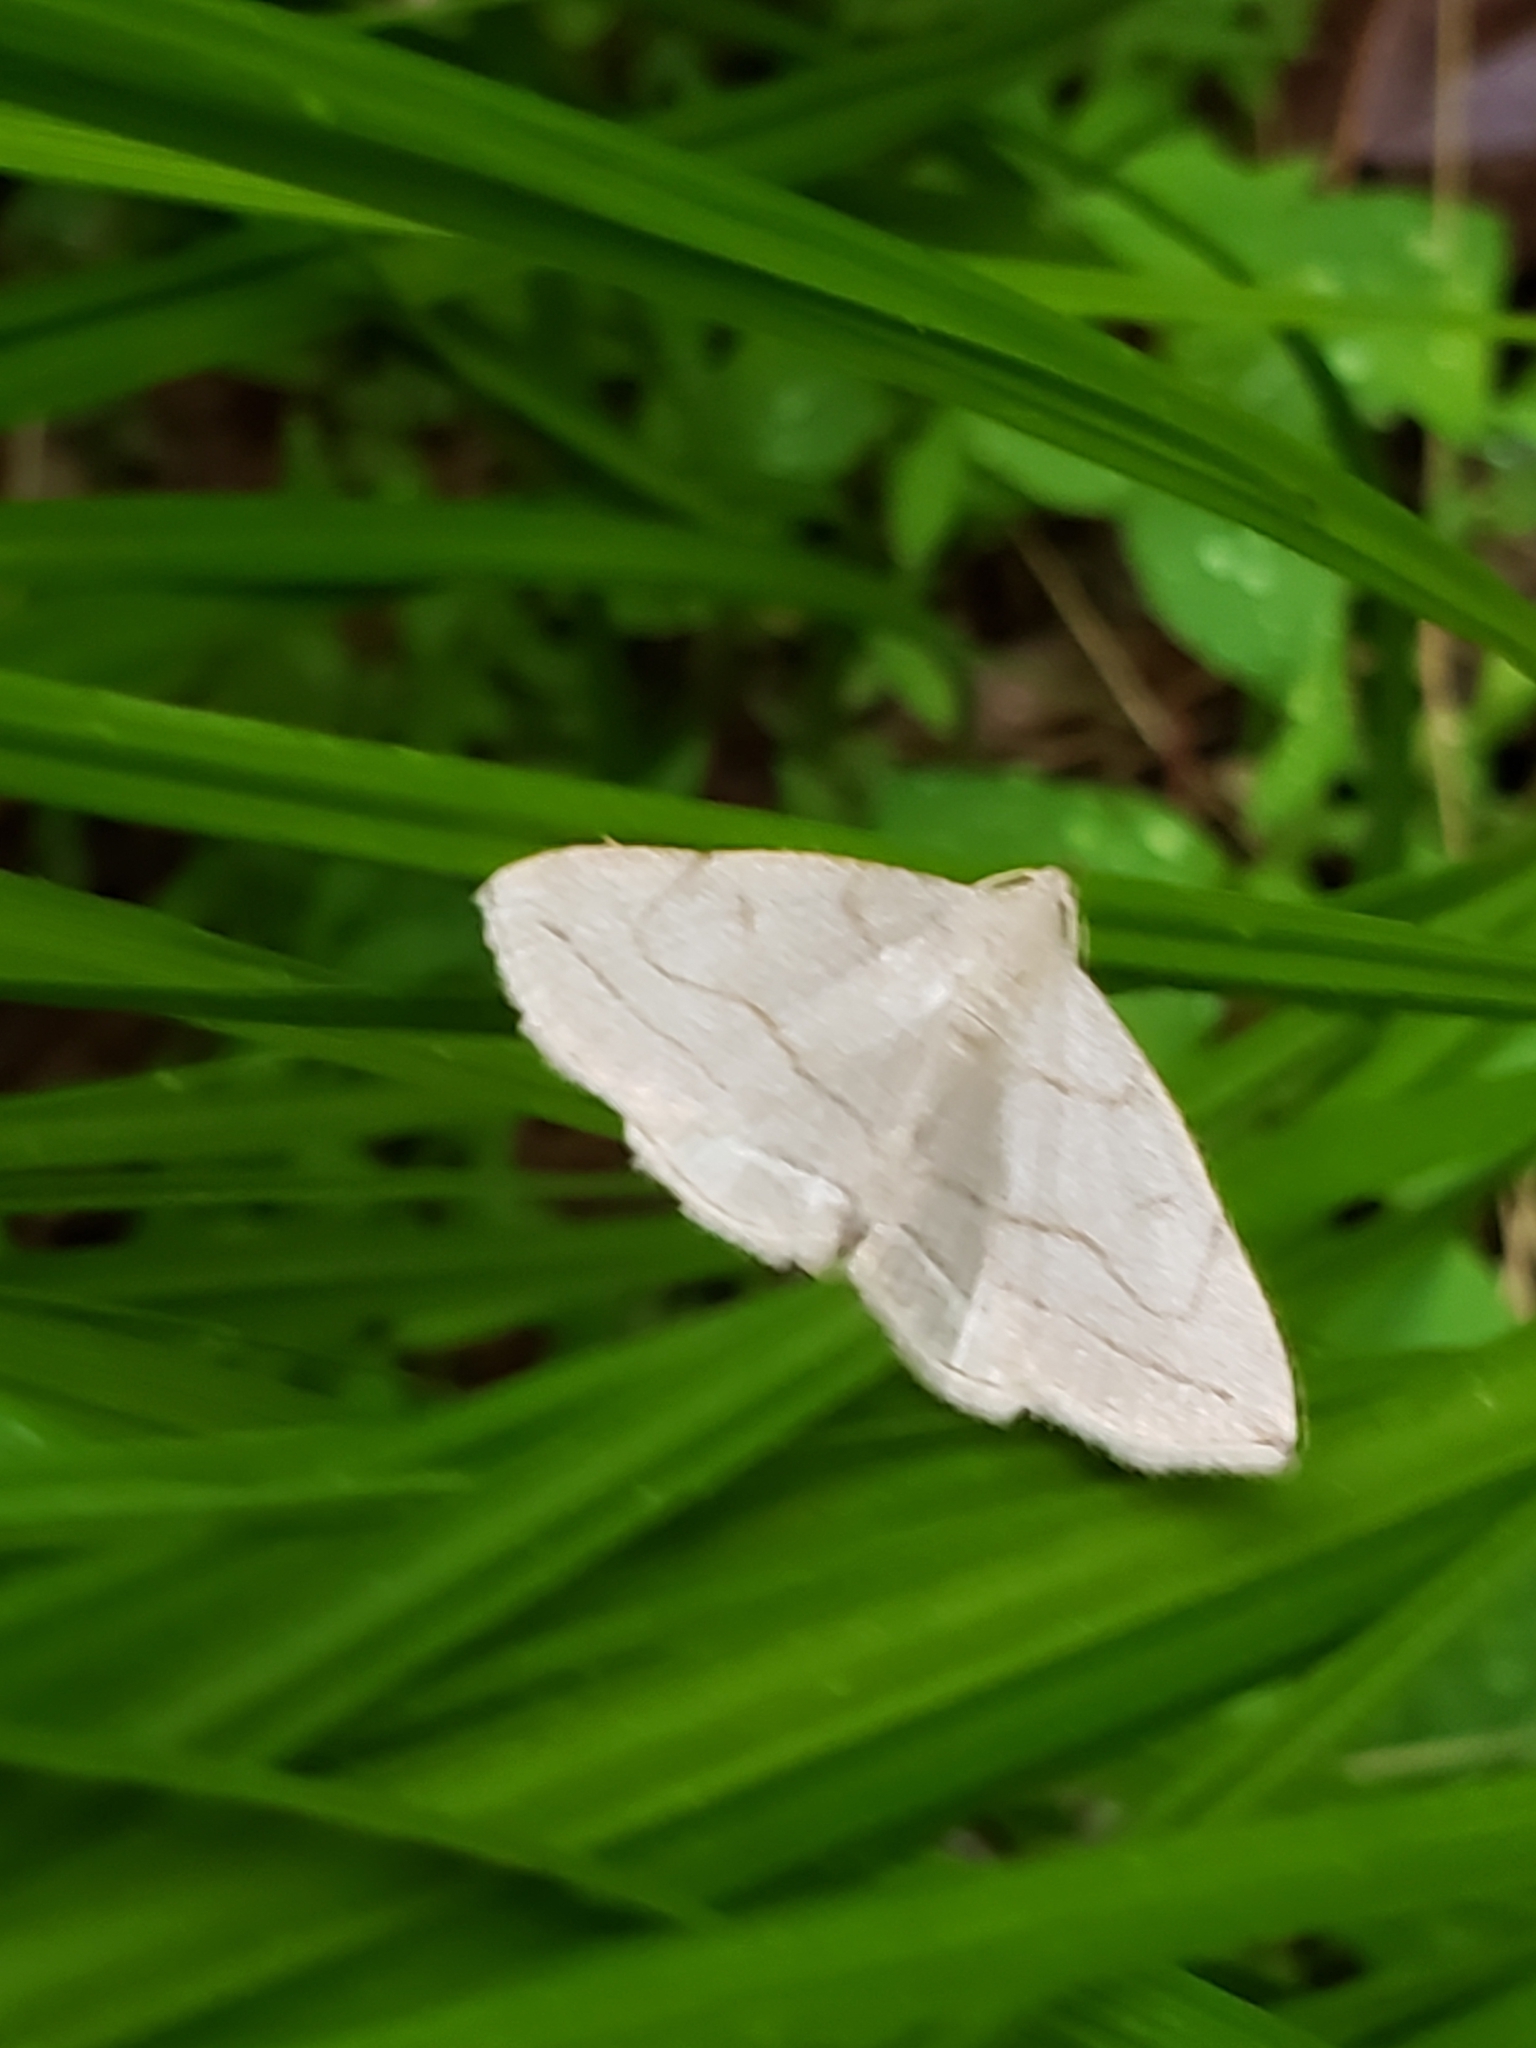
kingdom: Animalia
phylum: Arthropoda
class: Insecta
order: Lepidoptera
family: Erebidae
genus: Zanclognatha
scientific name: Zanclognatha pedipilalis
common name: Grayish fan-foot
